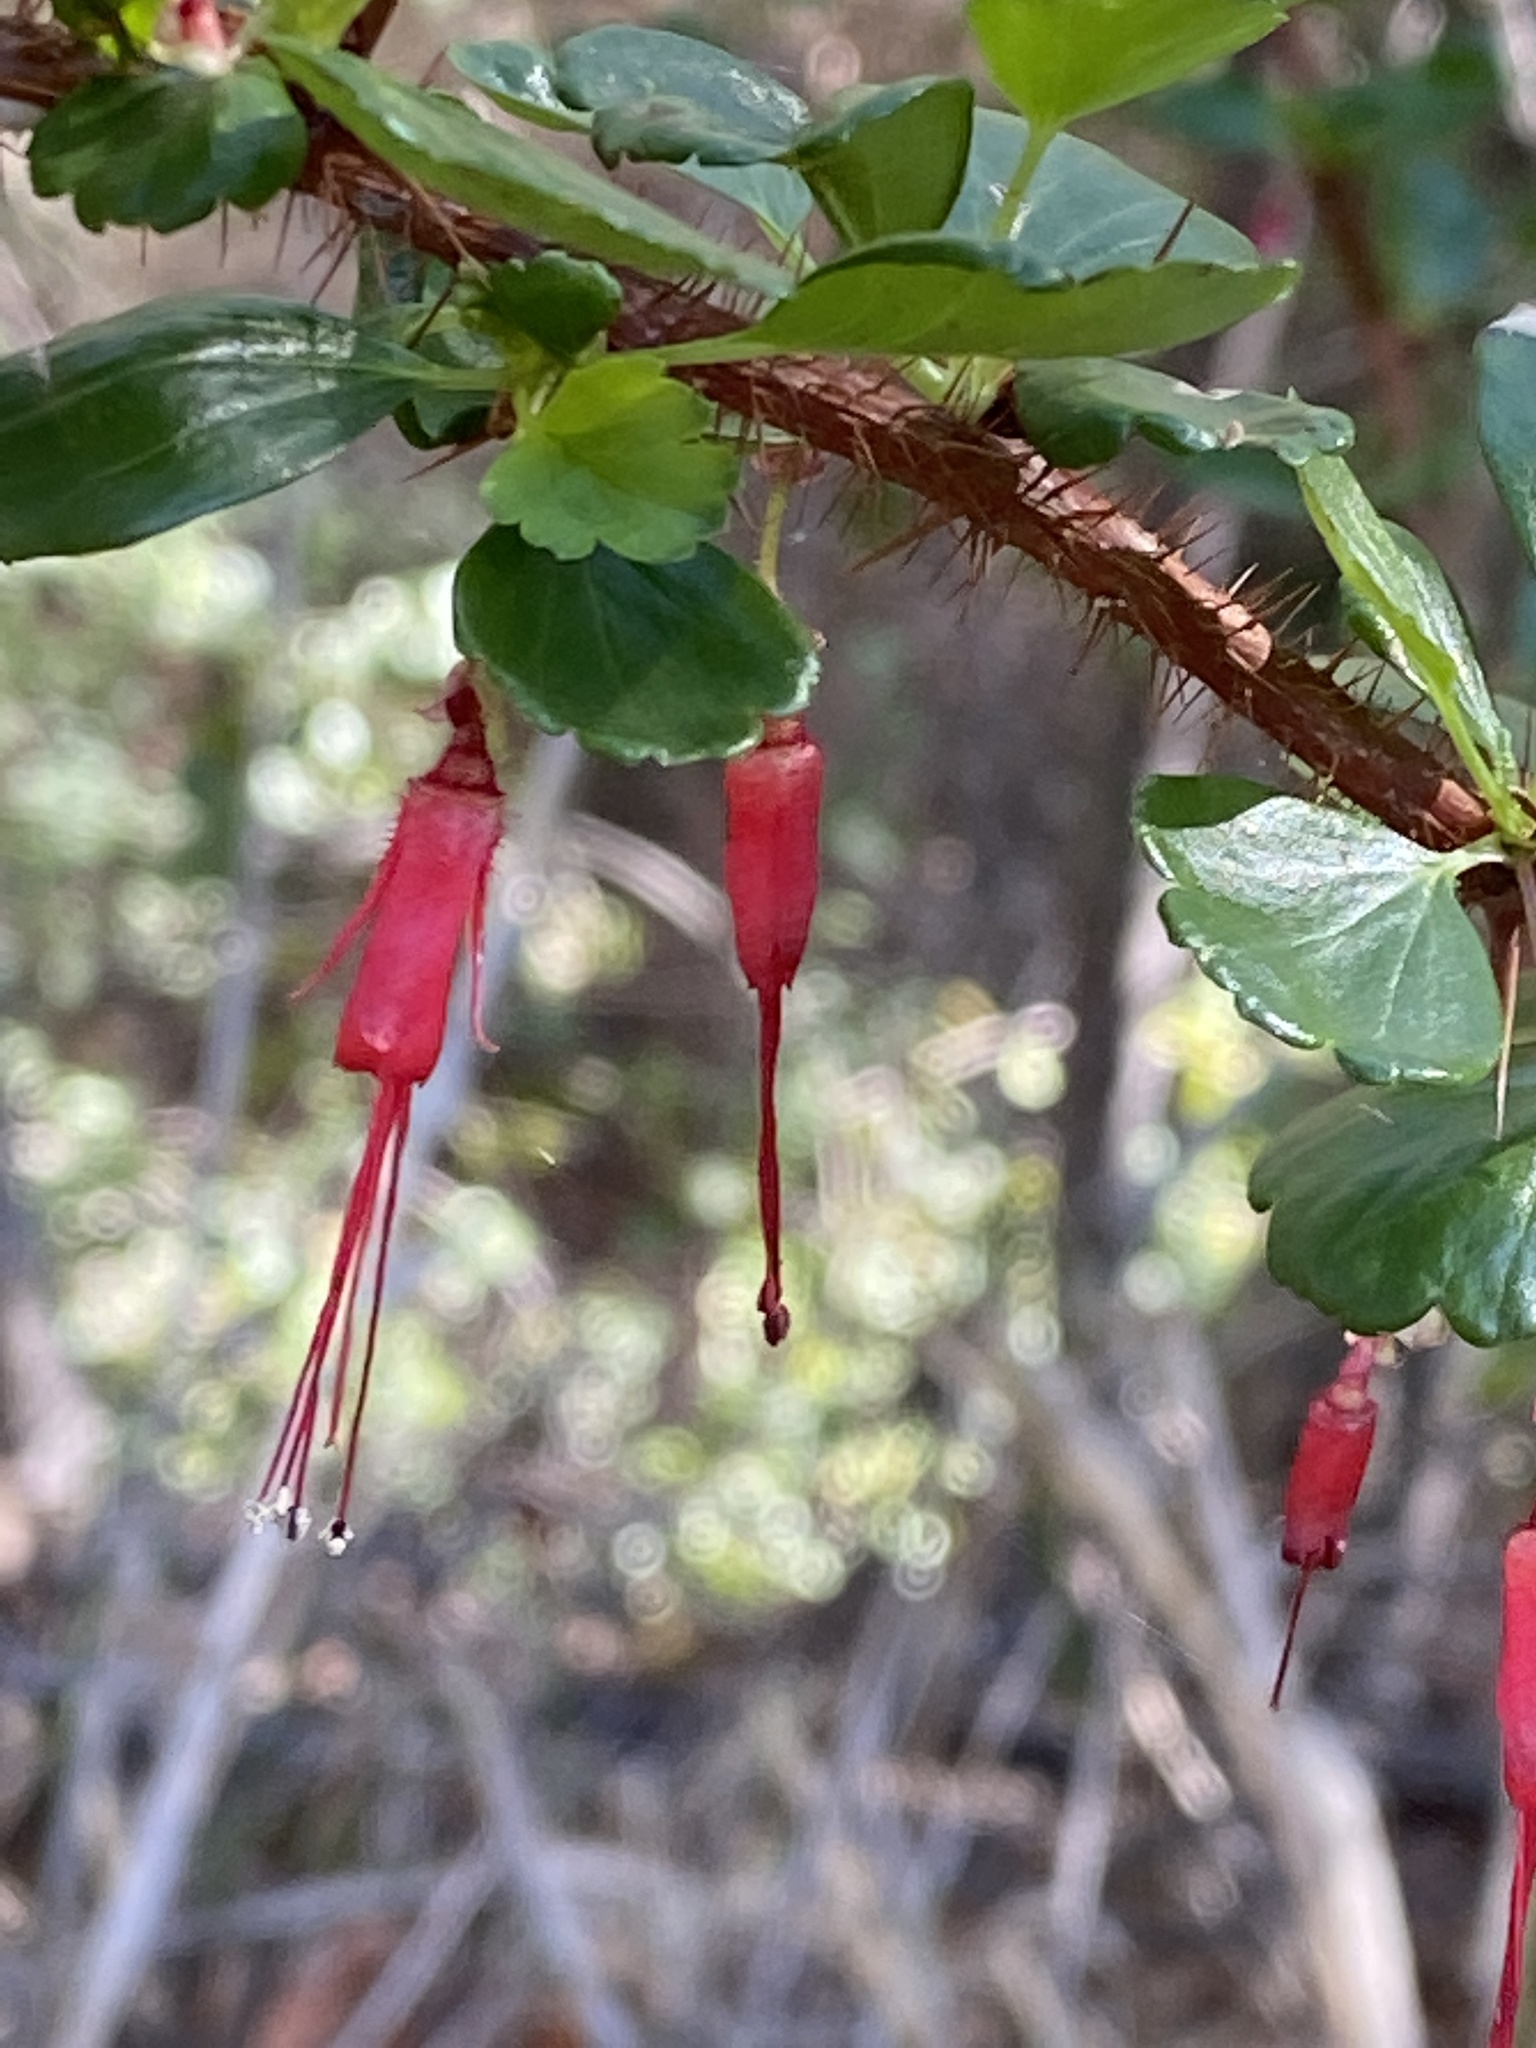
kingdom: Plantae
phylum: Tracheophyta
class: Magnoliopsida
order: Saxifragales
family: Grossulariaceae
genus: Ribes
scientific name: Ribes speciosum
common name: Fuchsia-flower gooseberry
